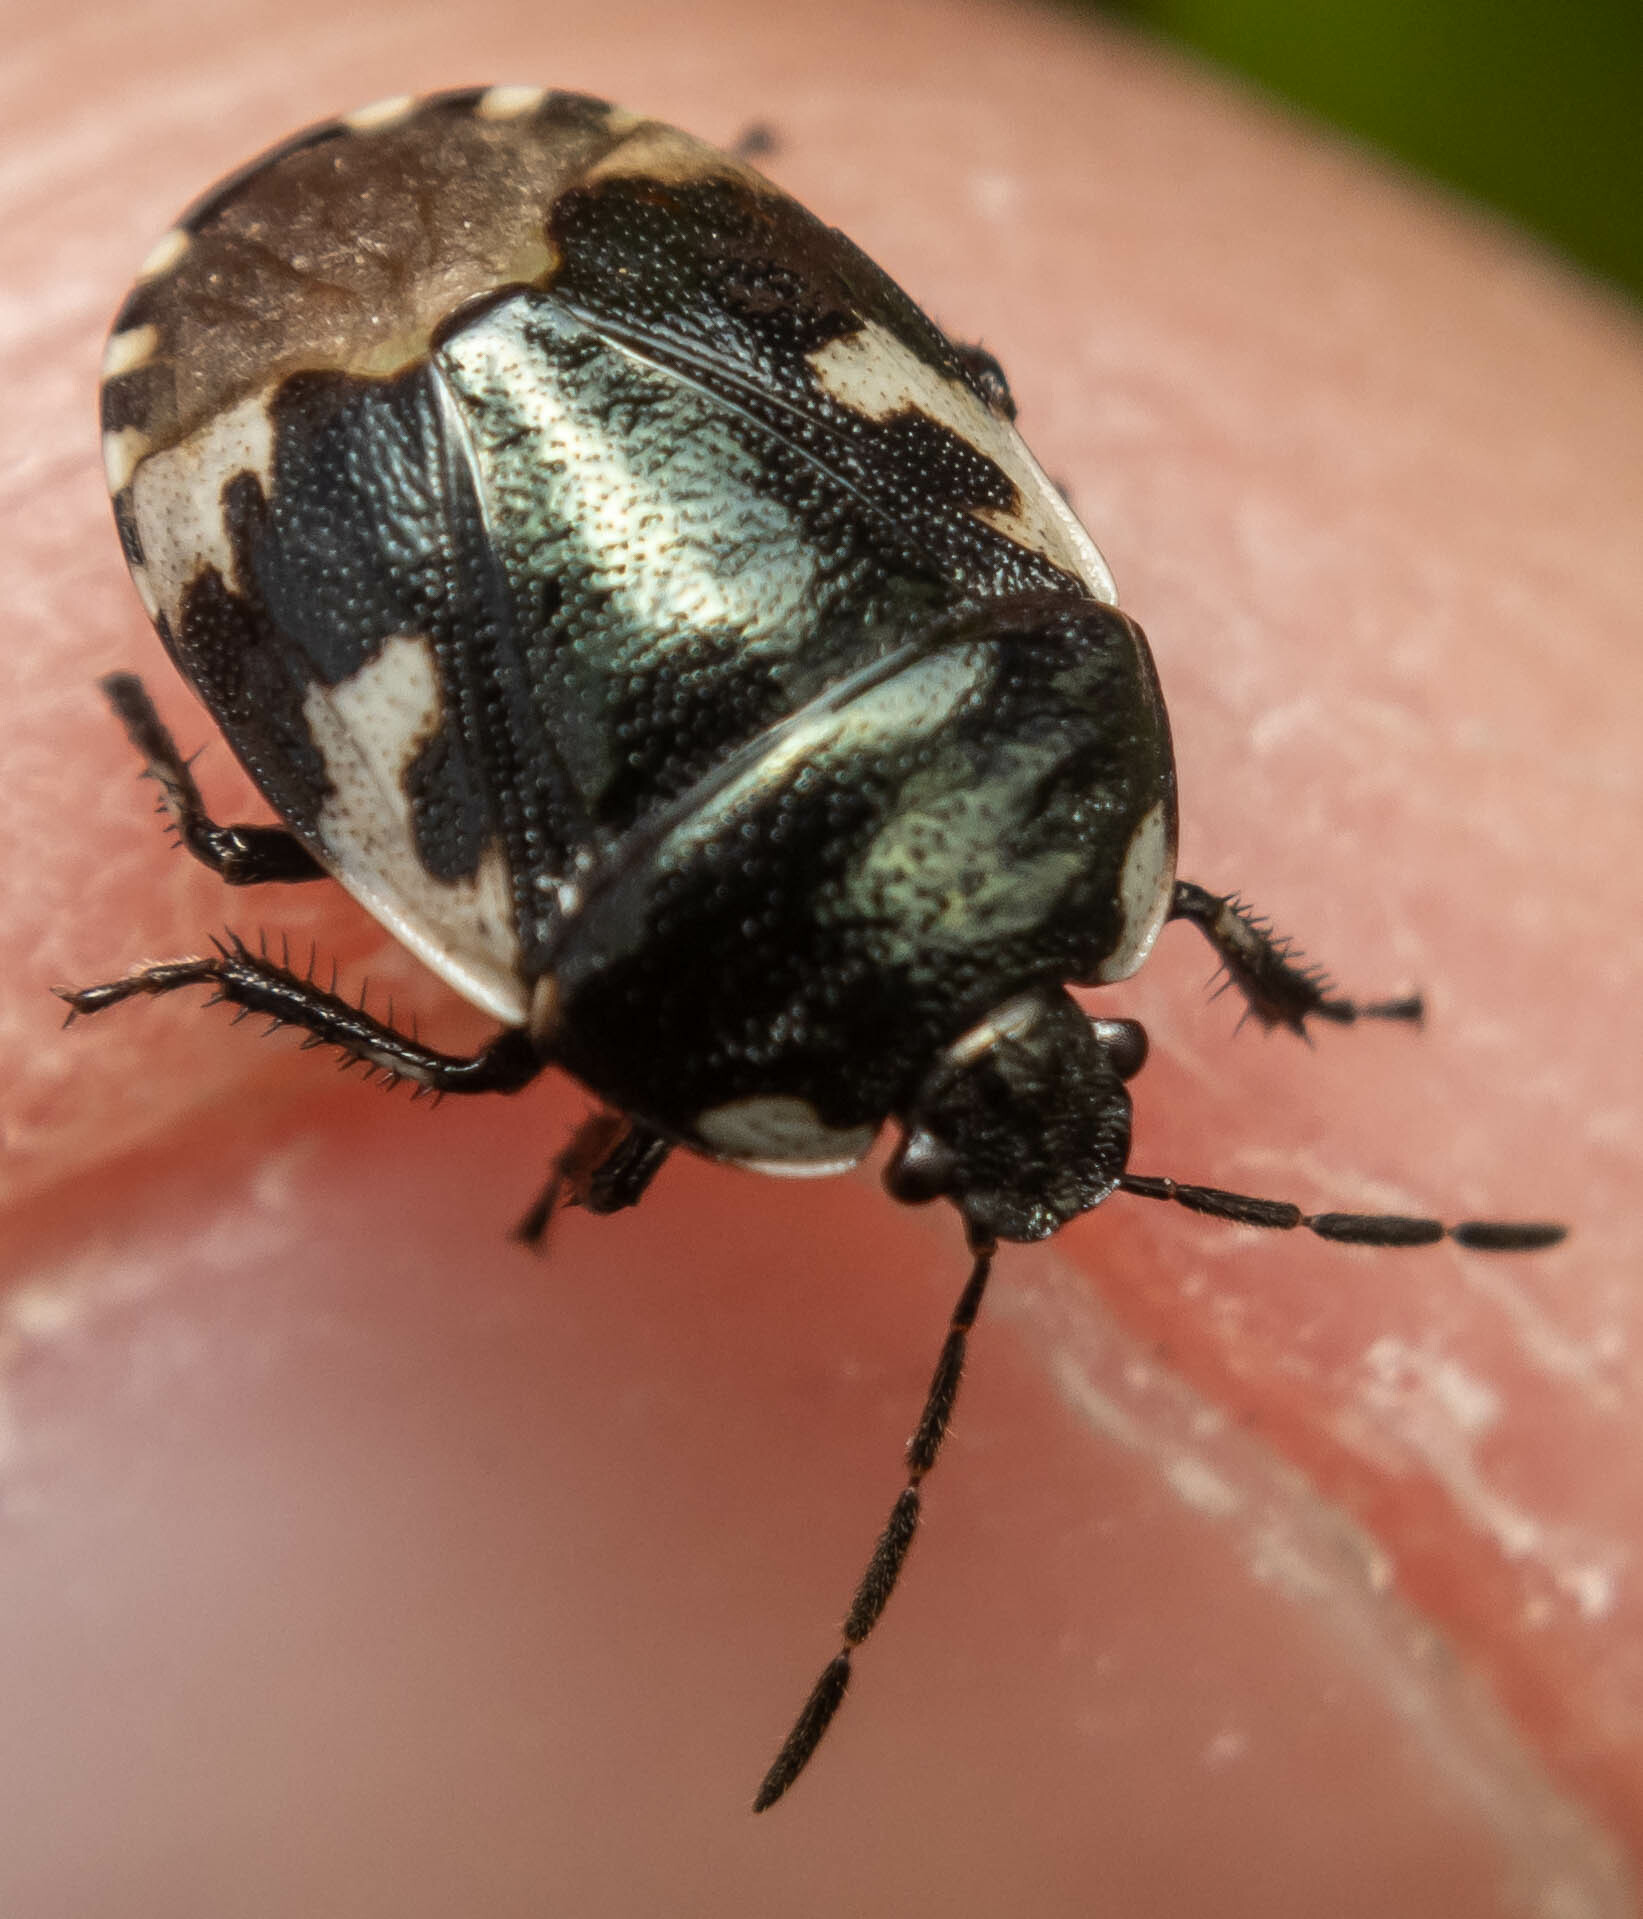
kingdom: Animalia
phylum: Arthropoda
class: Insecta
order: Hemiptera
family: Cydnidae
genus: Tritomegas
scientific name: Tritomegas bicolor
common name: Pied shieldbug
